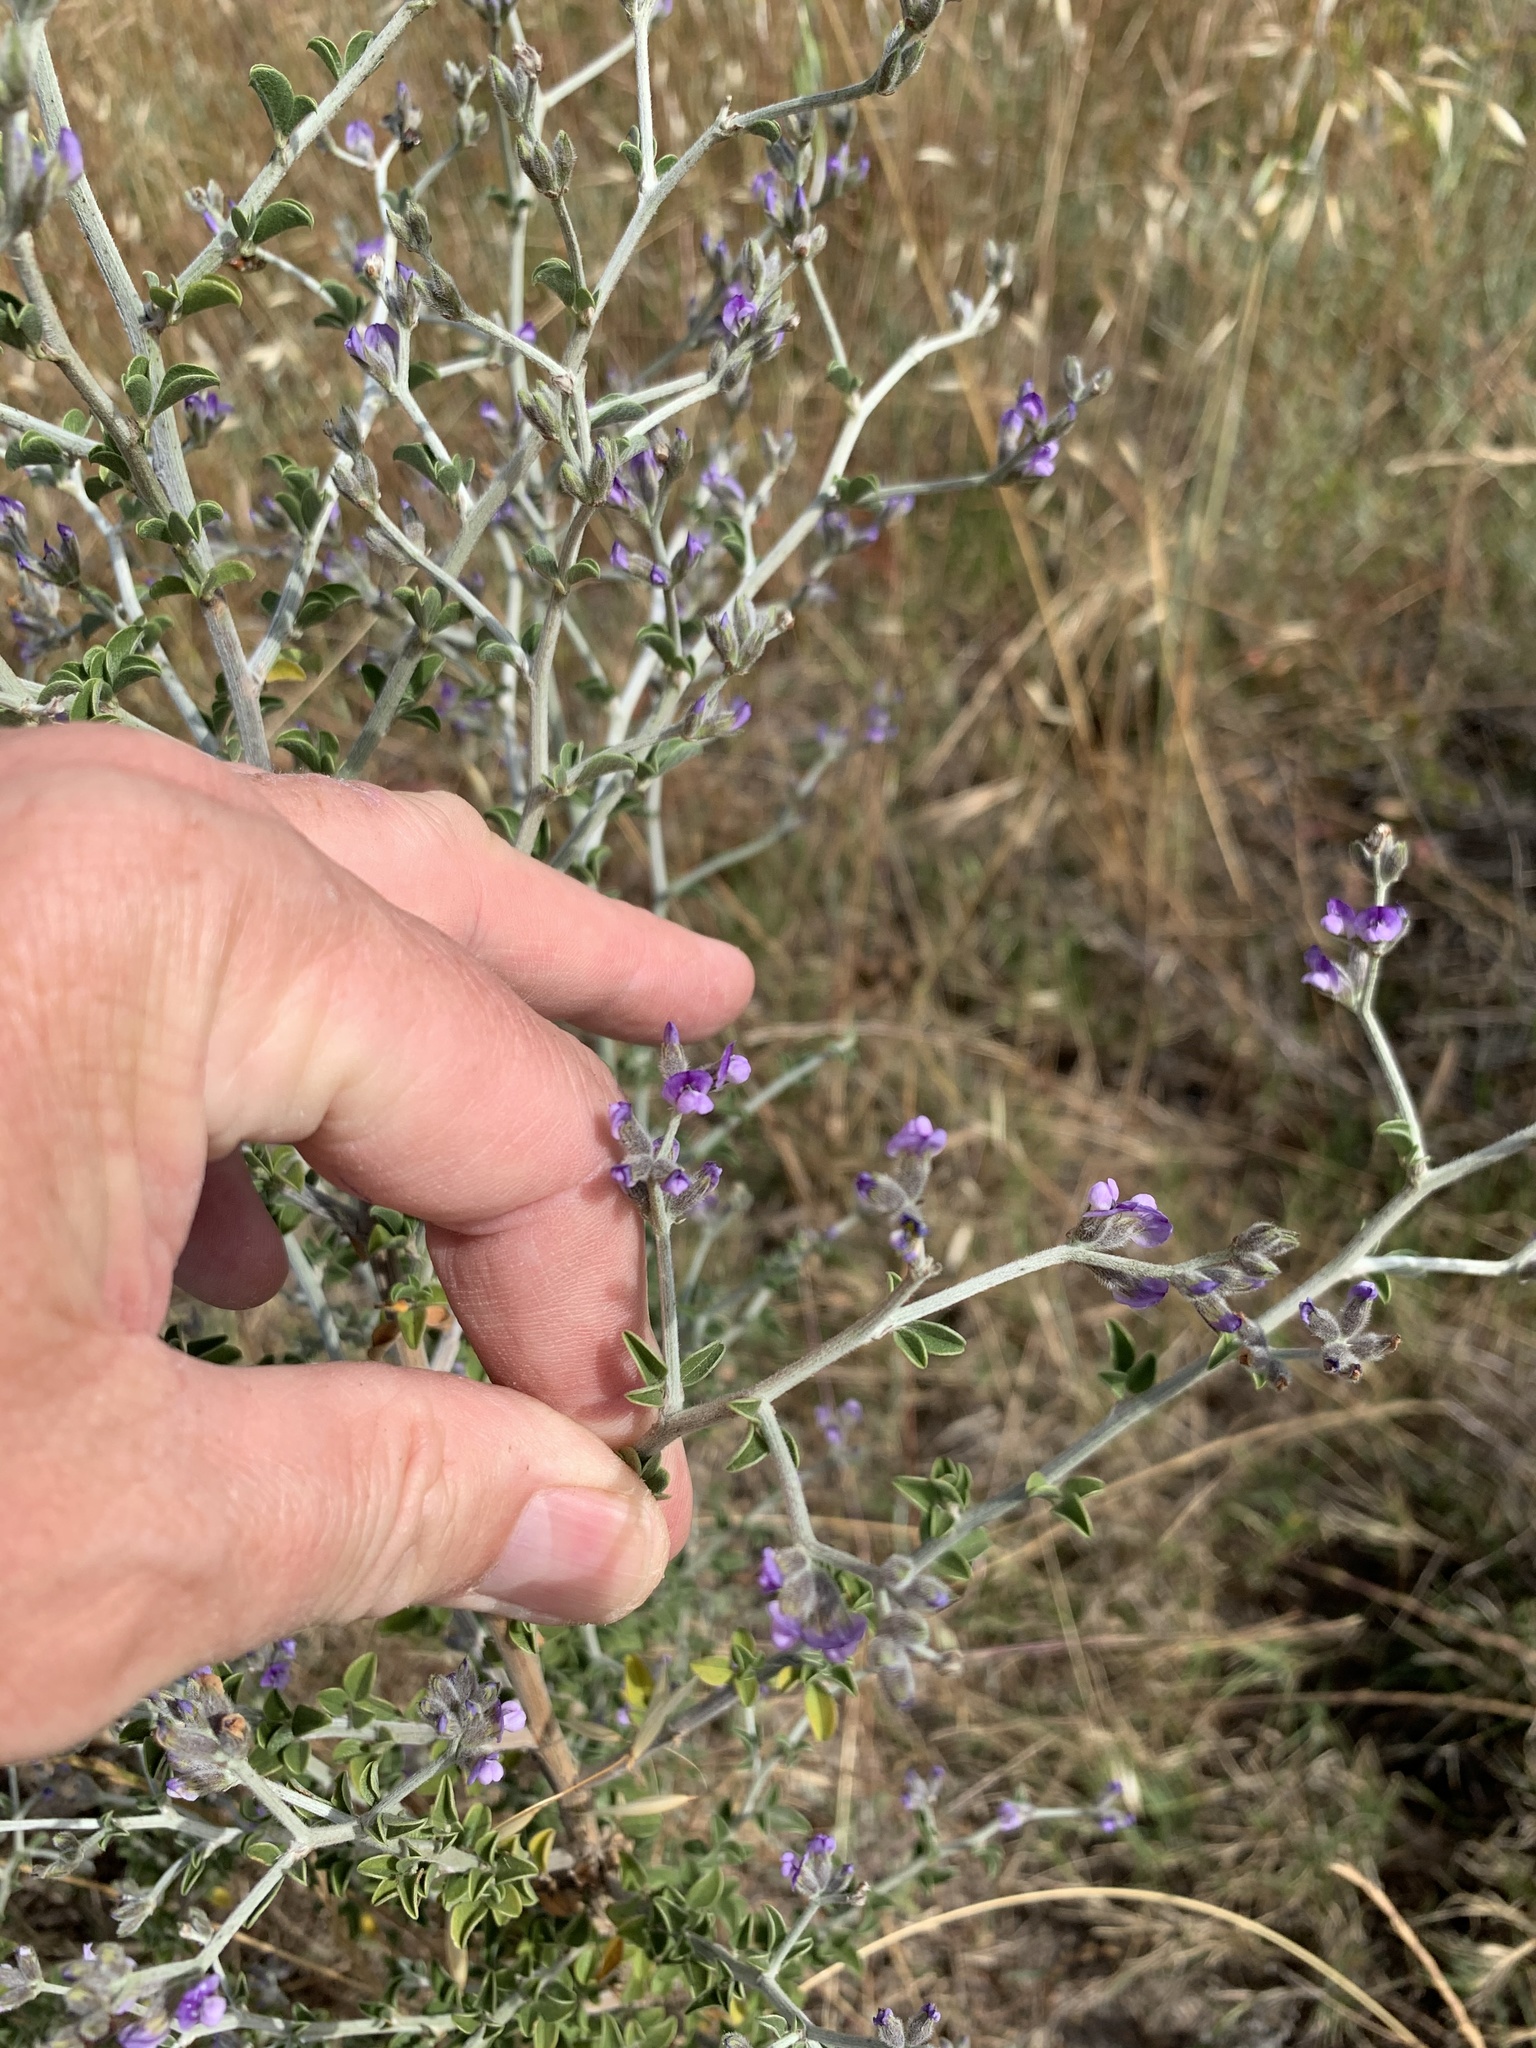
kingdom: Plantae
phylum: Tracheophyta
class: Magnoliopsida
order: Fabales
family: Fabaceae
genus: Psoralea
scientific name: Psoralea hirta
